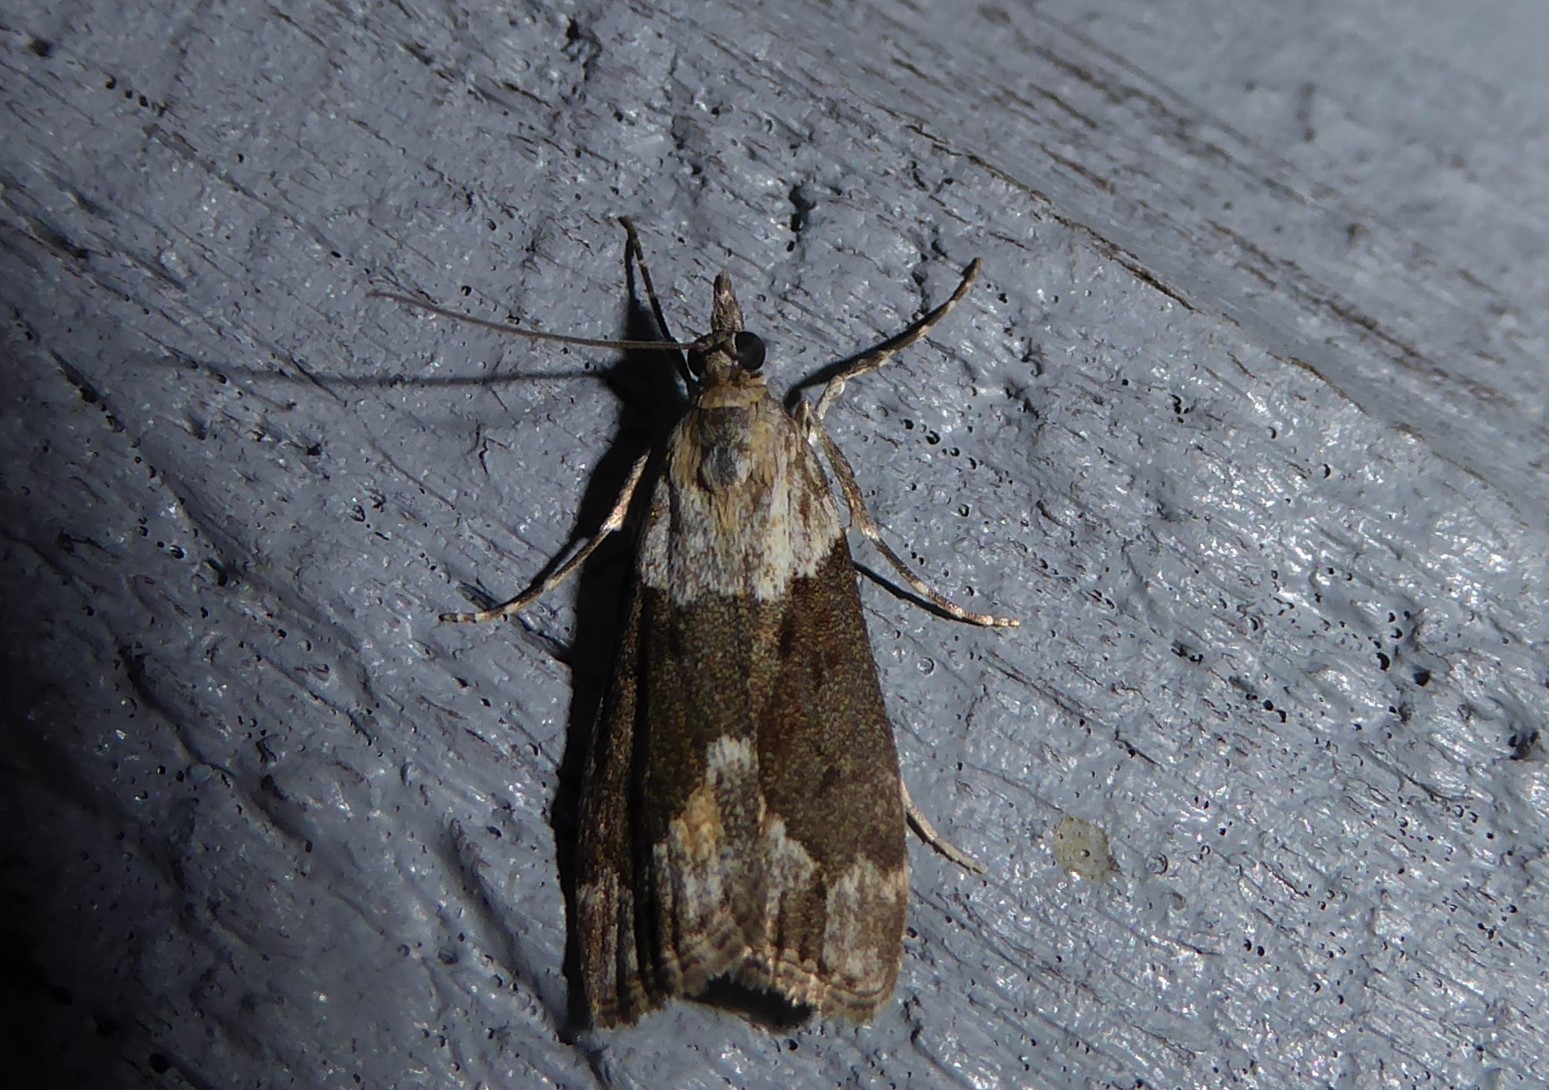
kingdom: Animalia
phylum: Arthropoda
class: Insecta
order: Lepidoptera
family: Crambidae
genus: Eudonia
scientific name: Eudonia submarginalis
